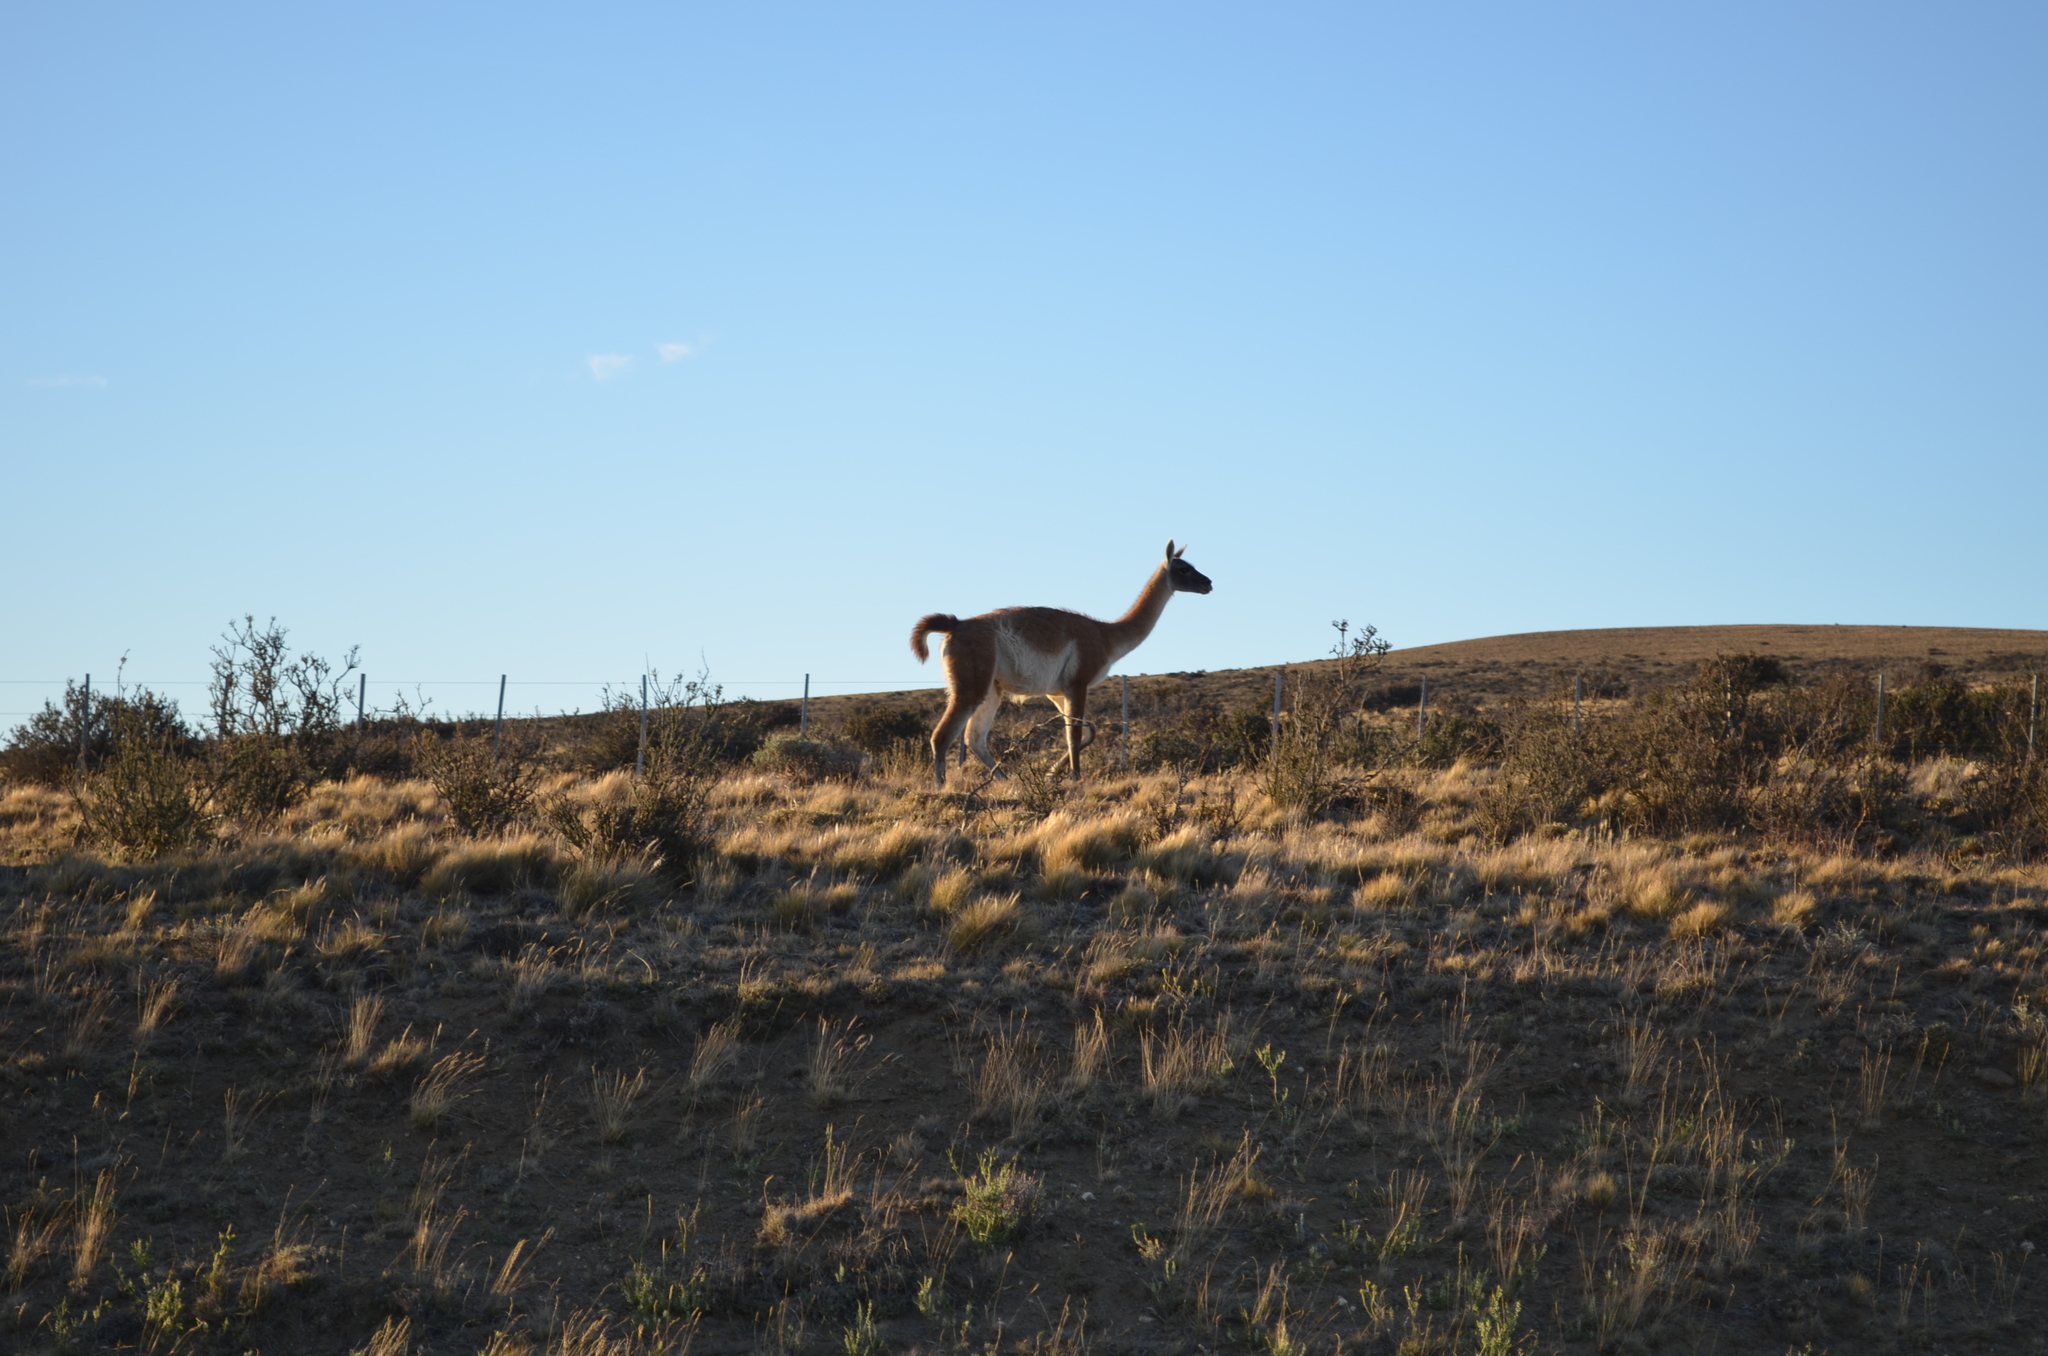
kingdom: Animalia
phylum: Chordata
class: Mammalia
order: Artiodactyla
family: Camelidae
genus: Lama
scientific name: Lama glama
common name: Llama
